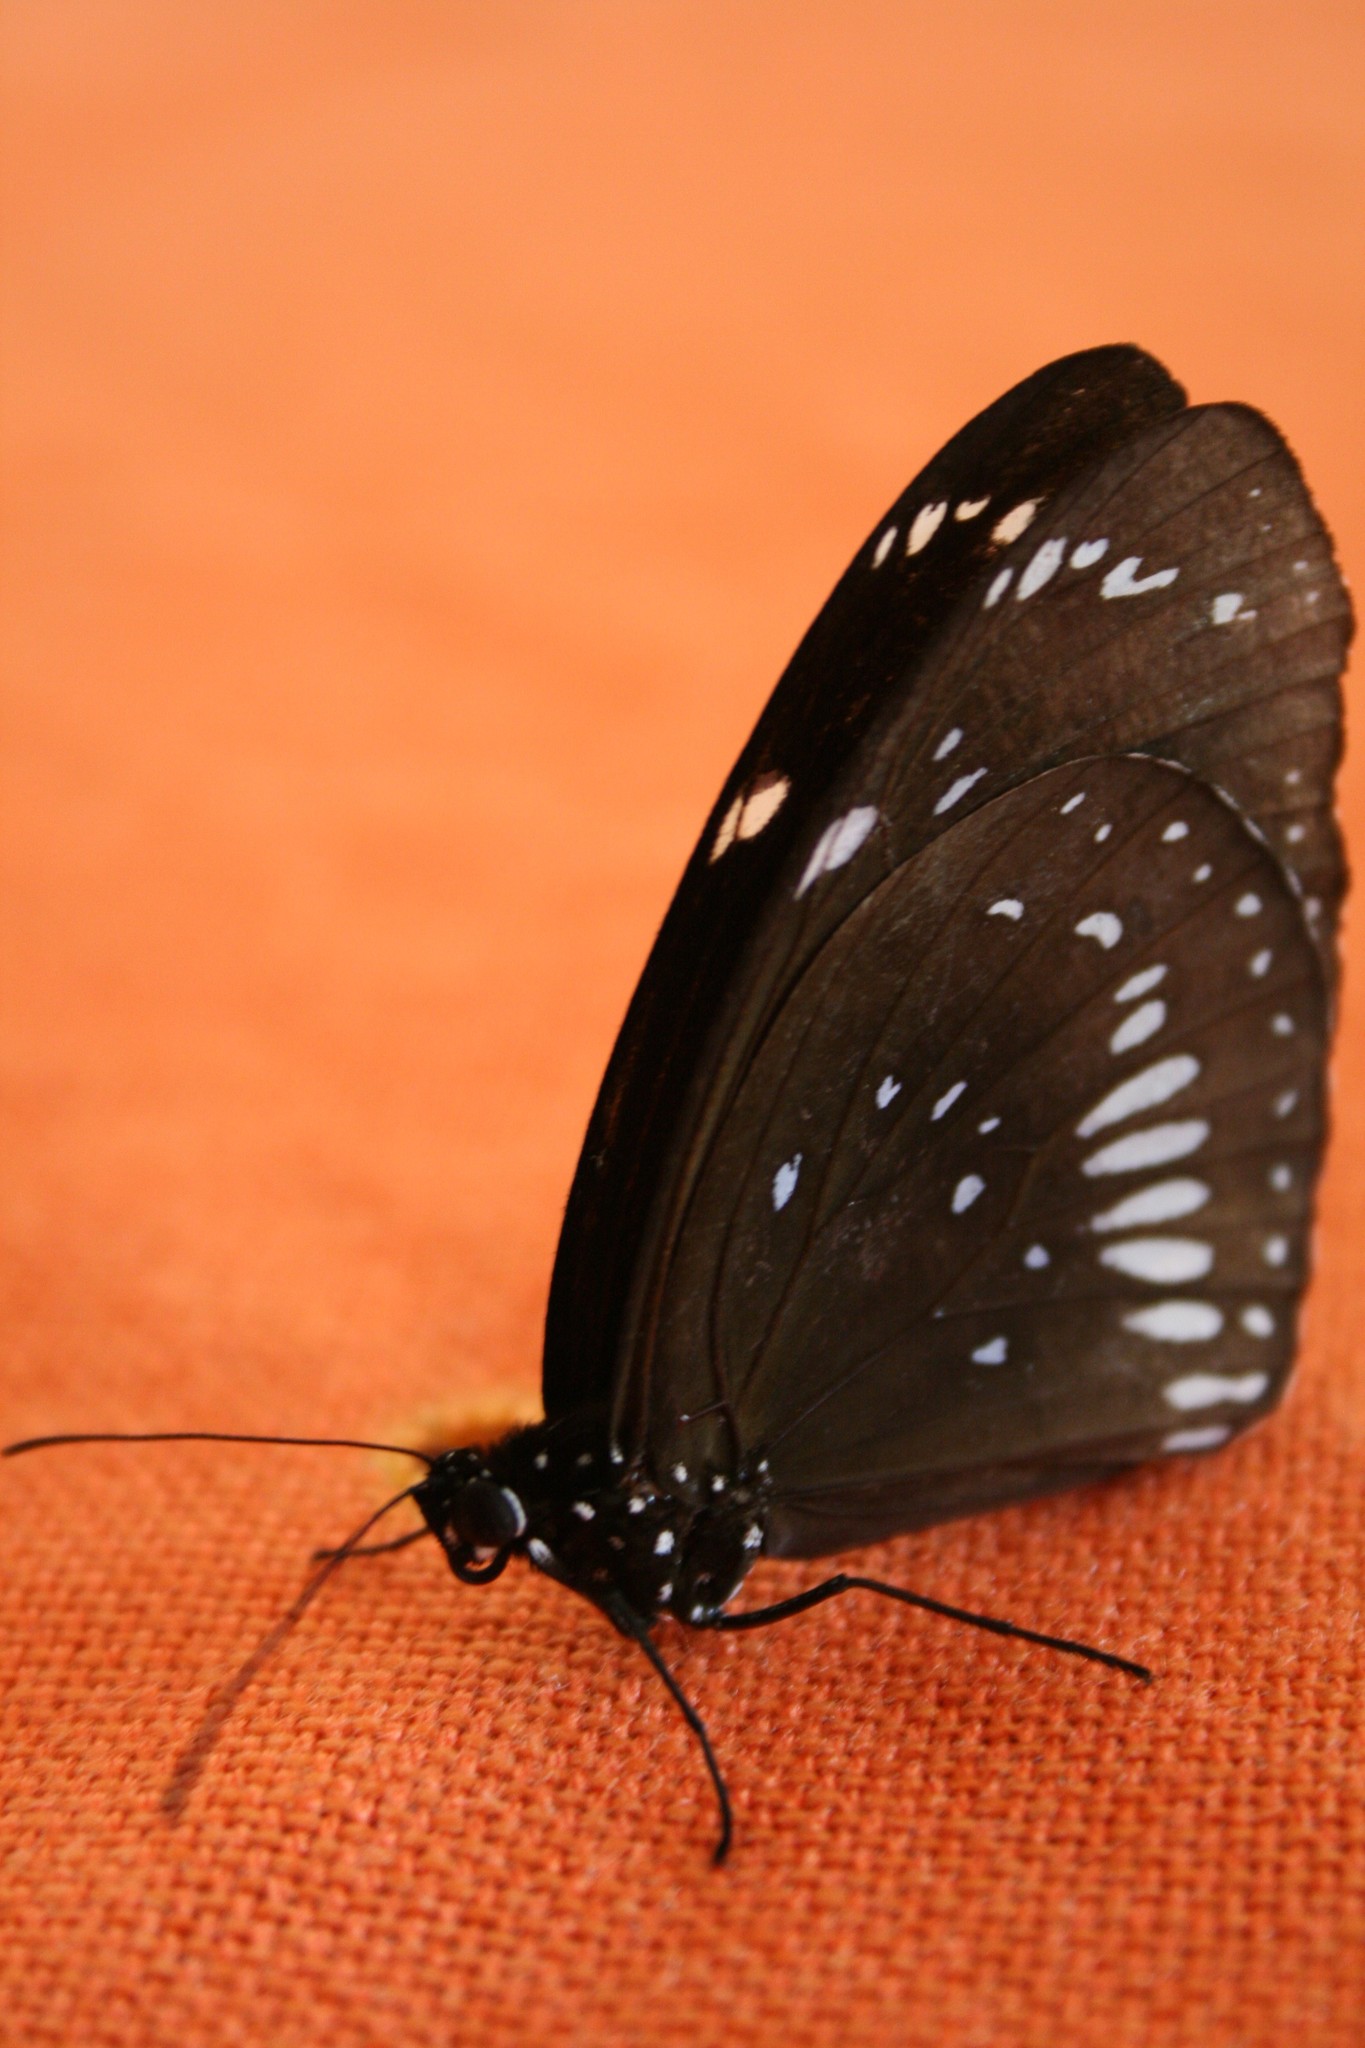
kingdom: Animalia
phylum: Arthropoda
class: Insecta
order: Lepidoptera
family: Nymphalidae
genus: Euploea
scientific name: Euploea lewinii
